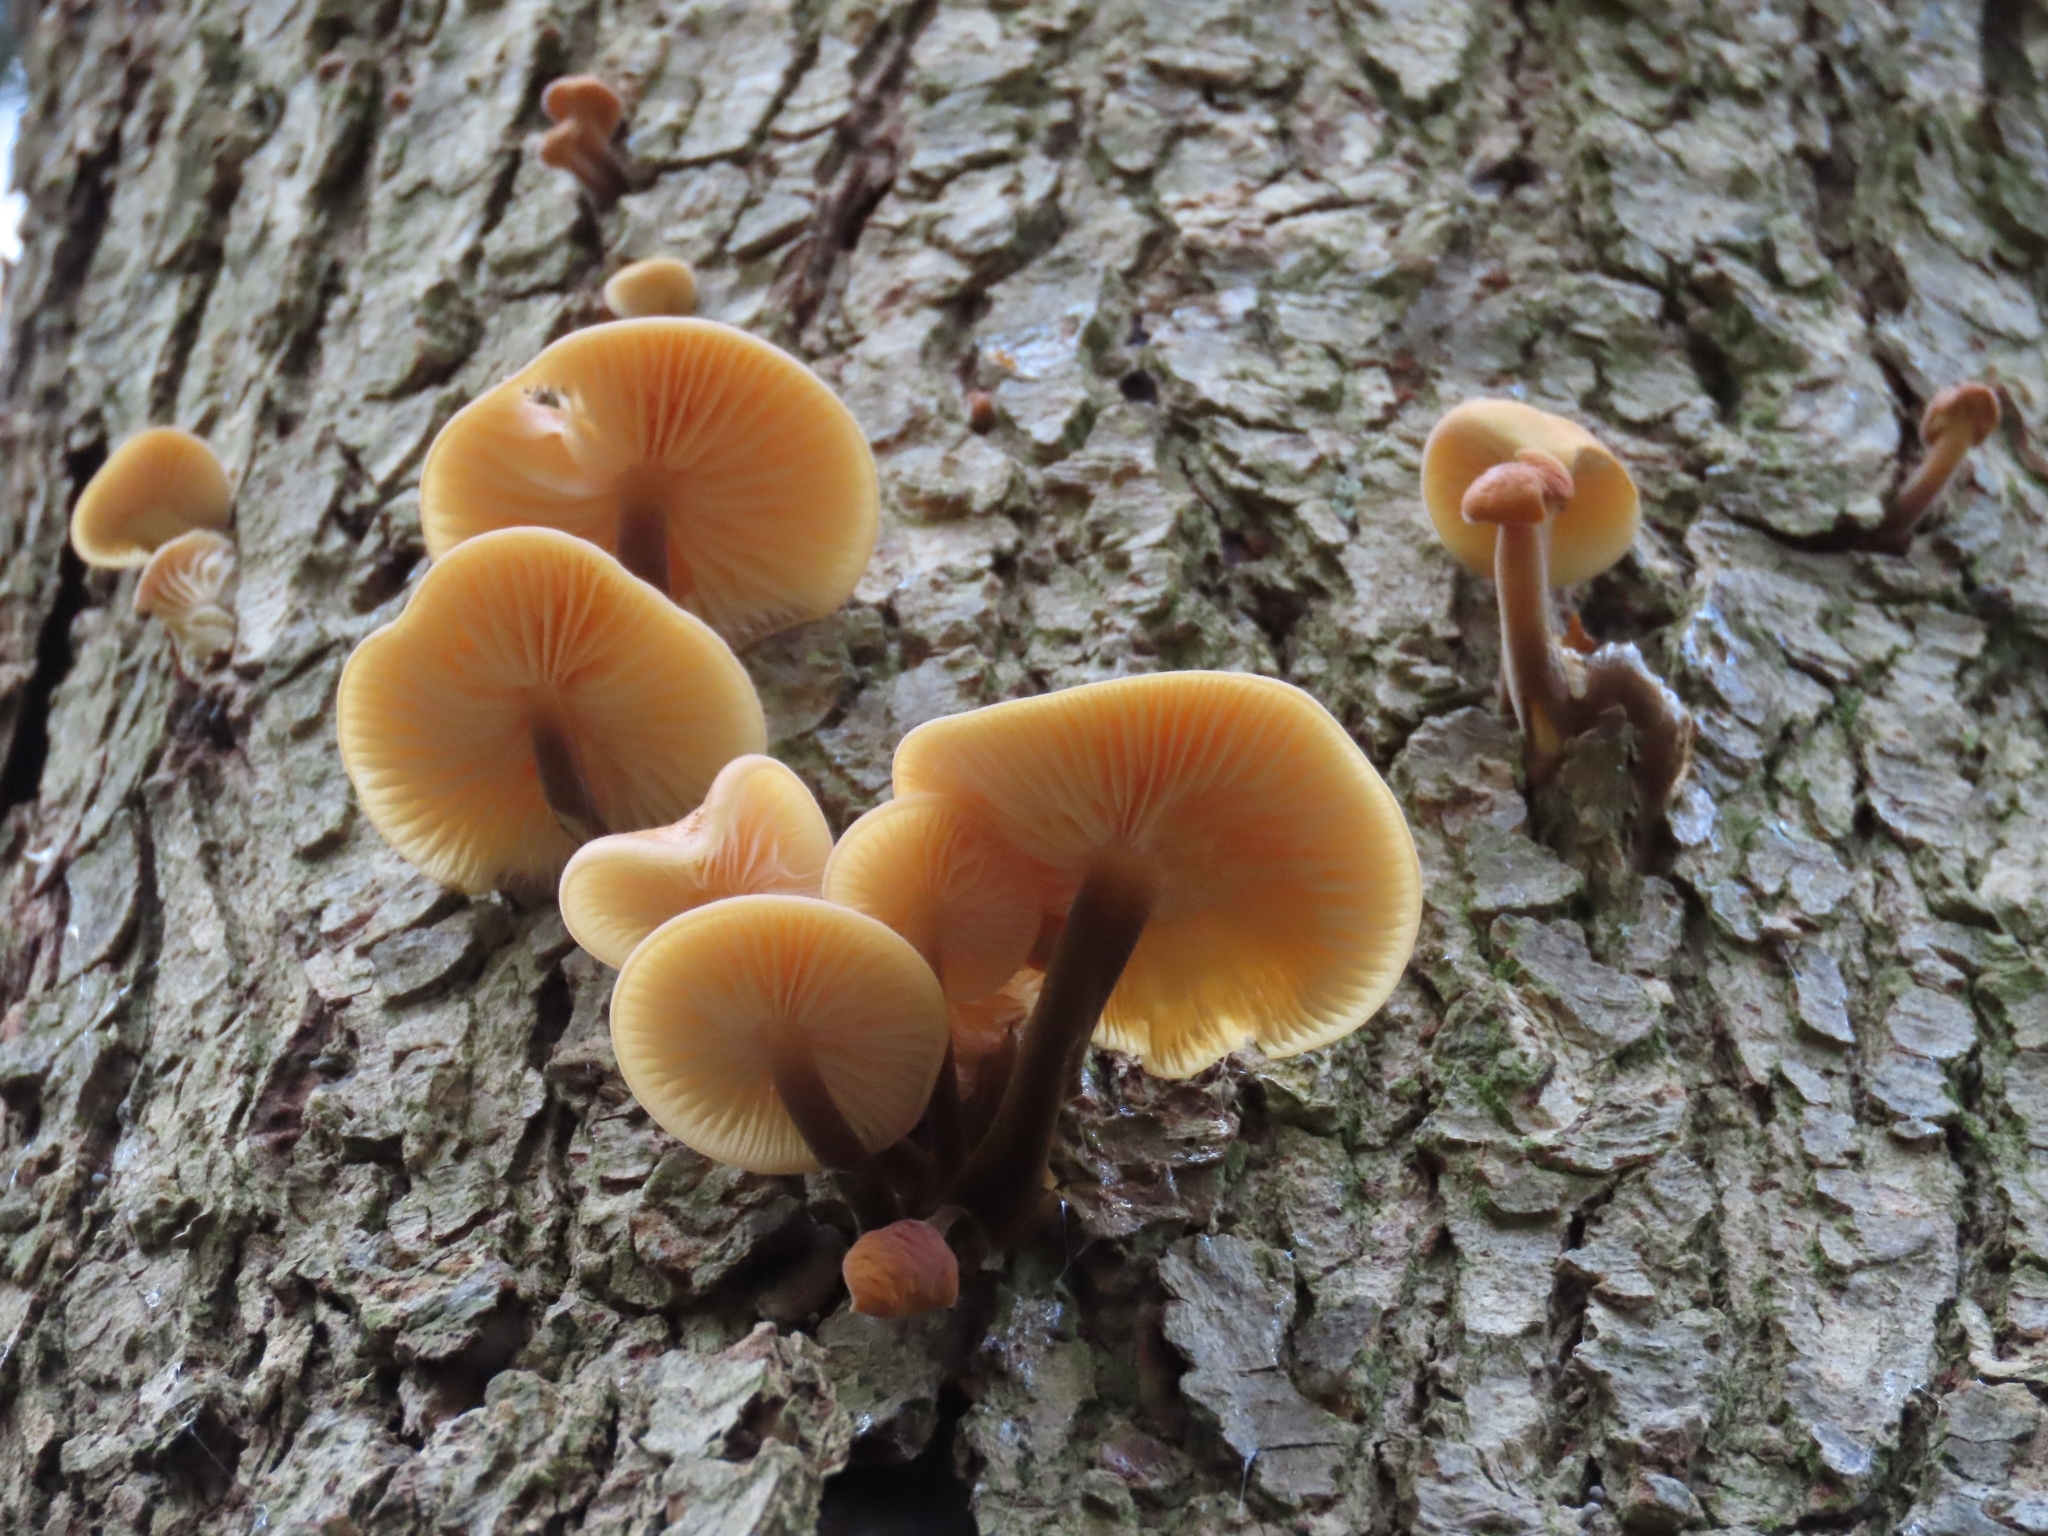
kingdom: Fungi
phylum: Basidiomycota
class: Agaricomycetes
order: Agaricales
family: Physalacriaceae
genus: Flammulina
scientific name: Flammulina
